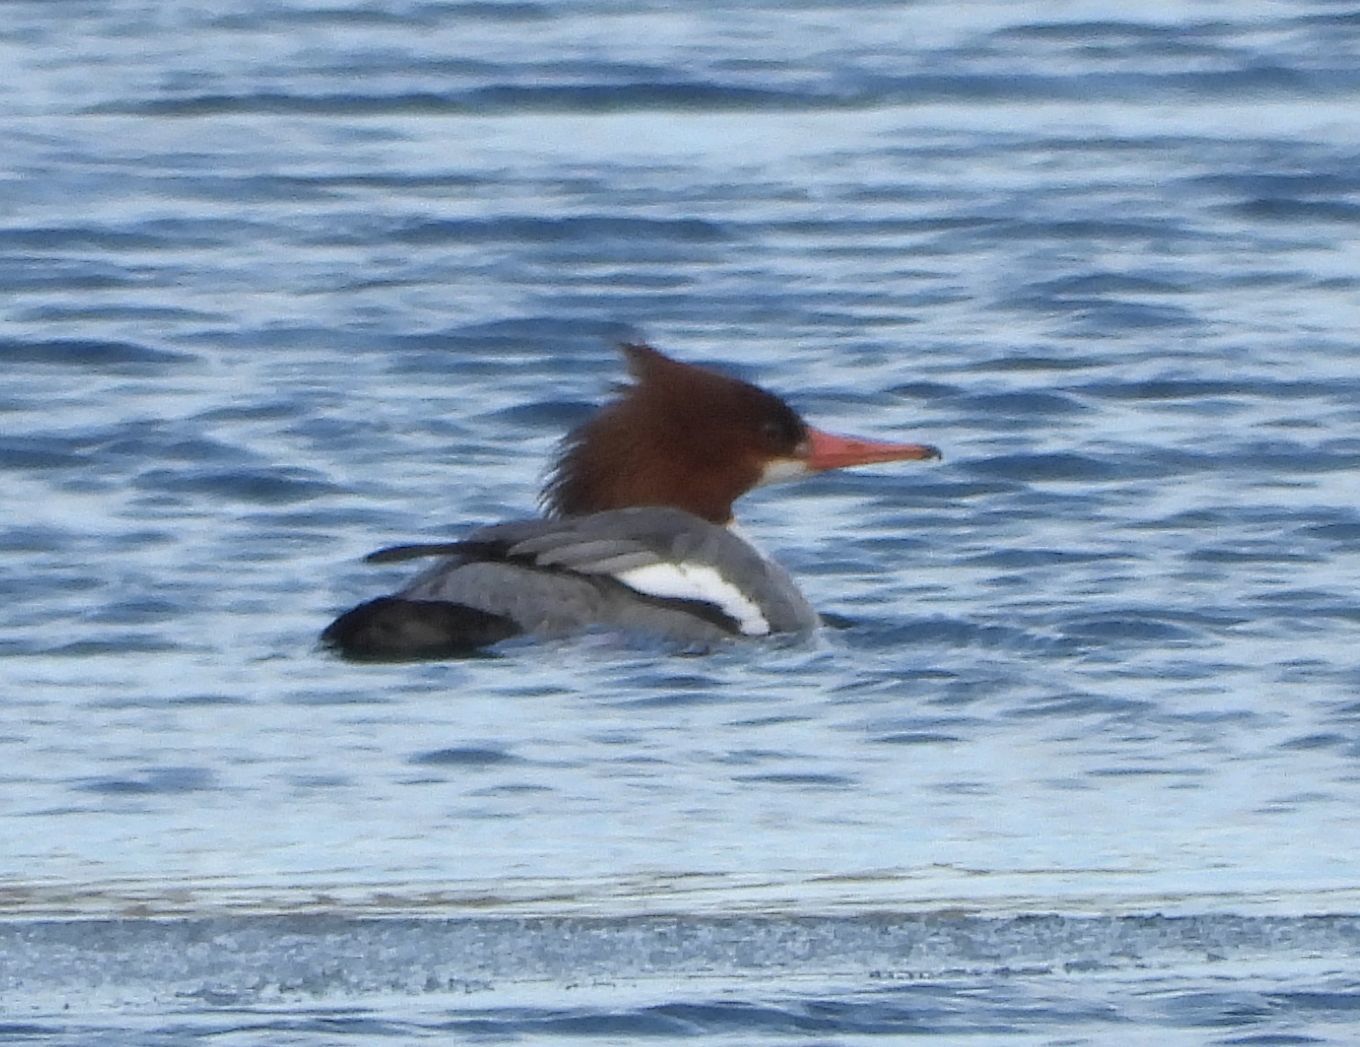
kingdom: Animalia
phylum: Chordata
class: Aves
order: Anseriformes
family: Anatidae
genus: Mergus
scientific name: Mergus merganser
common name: Common merganser
